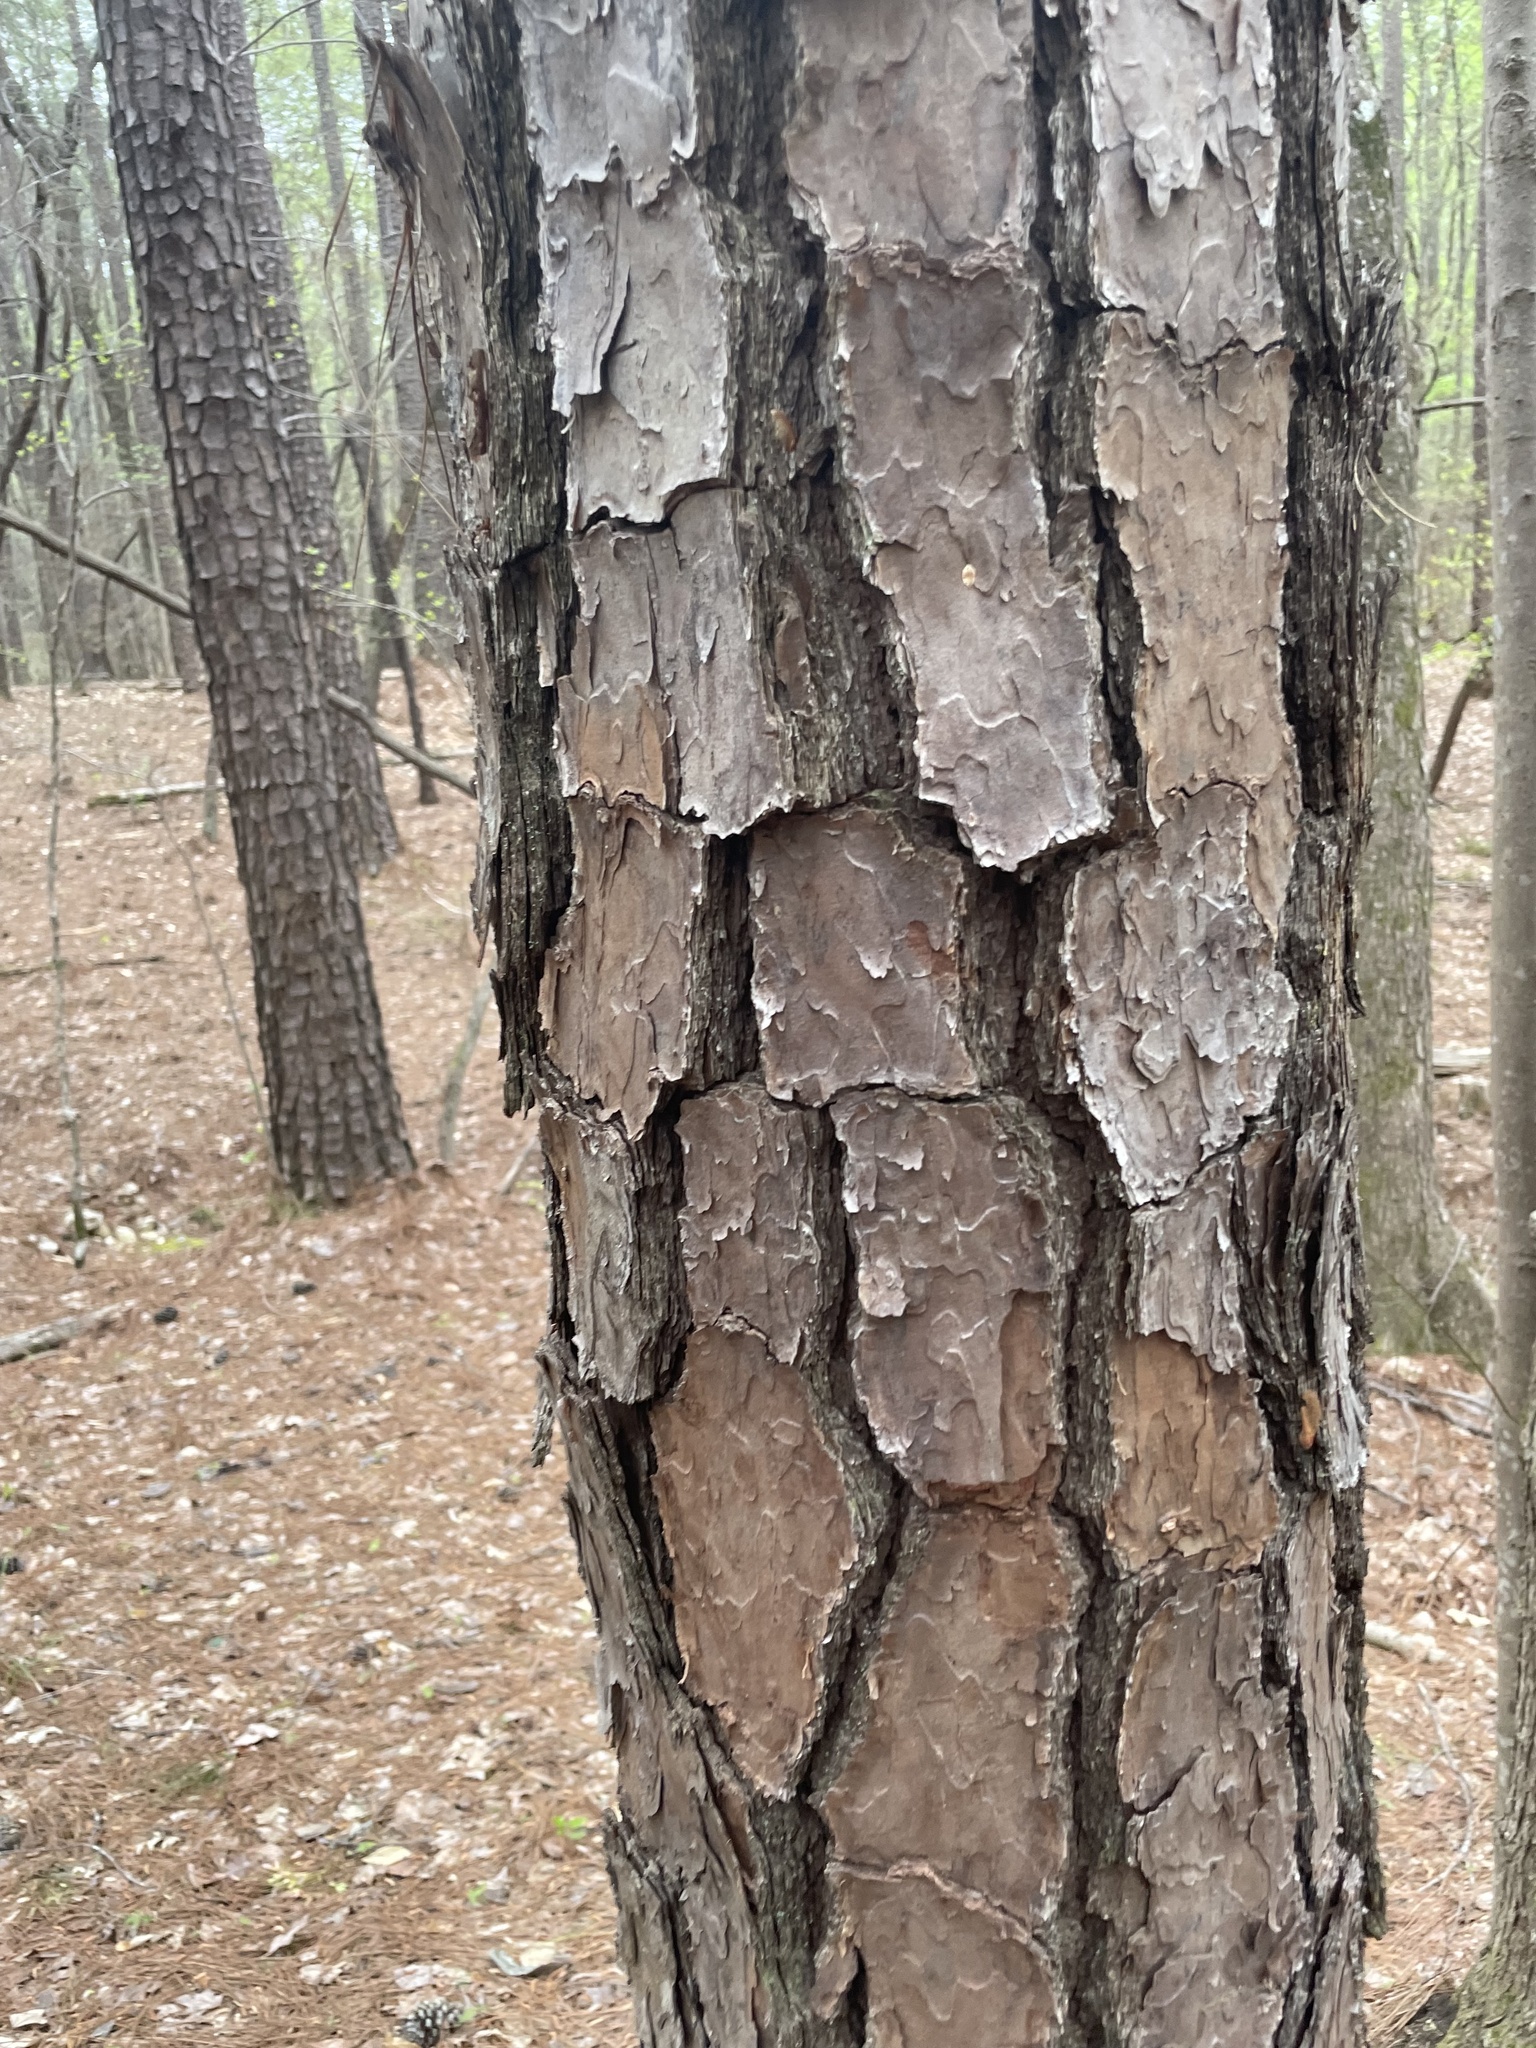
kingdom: Plantae
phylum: Tracheophyta
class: Pinopsida
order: Pinales
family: Pinaceae
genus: Pinus
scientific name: Pinus taeda
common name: Loblolly pine
